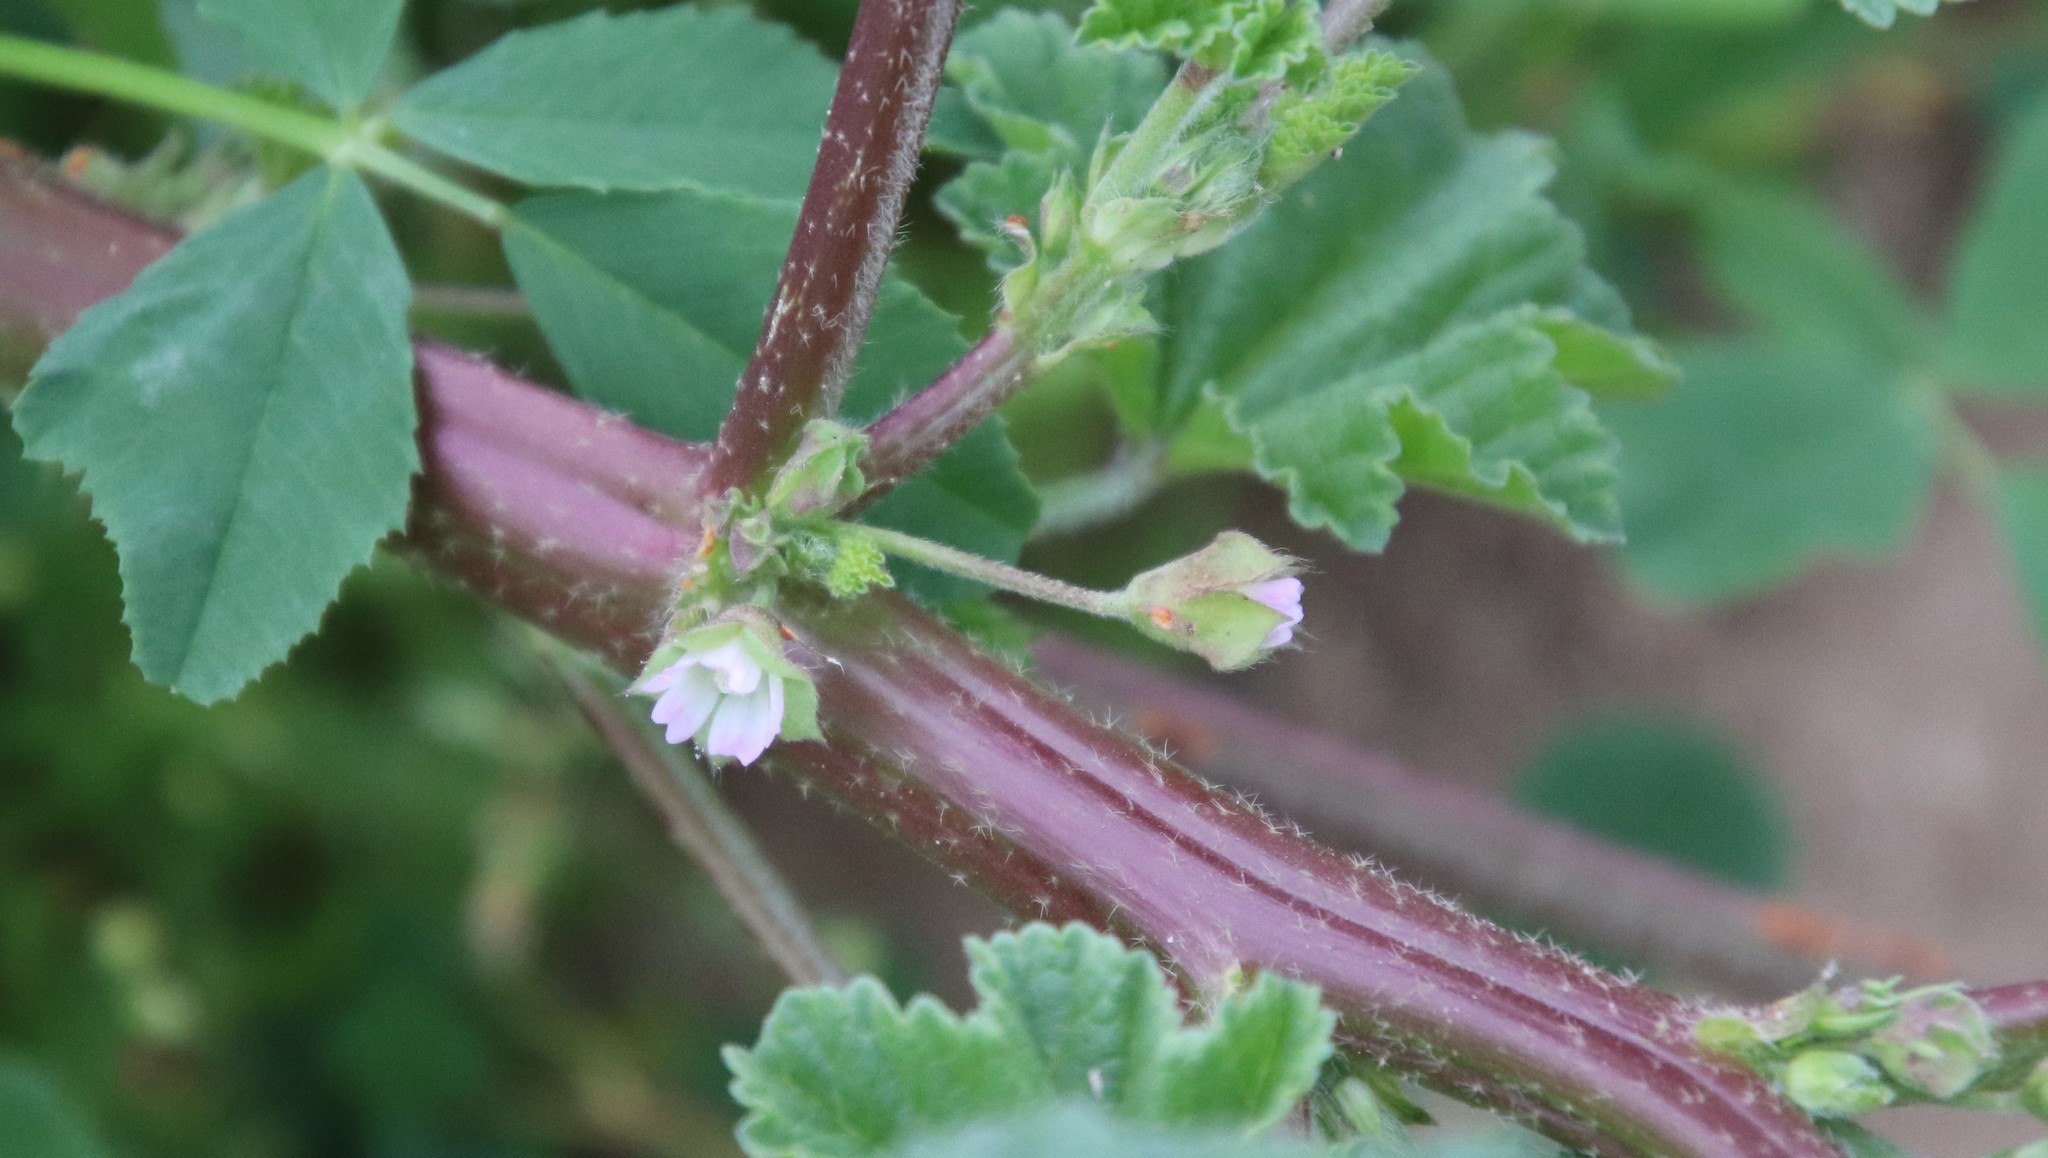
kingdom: Plantae
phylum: Tracheophyta
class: Magnoliopsida
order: Malvales
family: Malvaceae
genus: Malva
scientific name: Malva parviflora
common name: Least mallow
